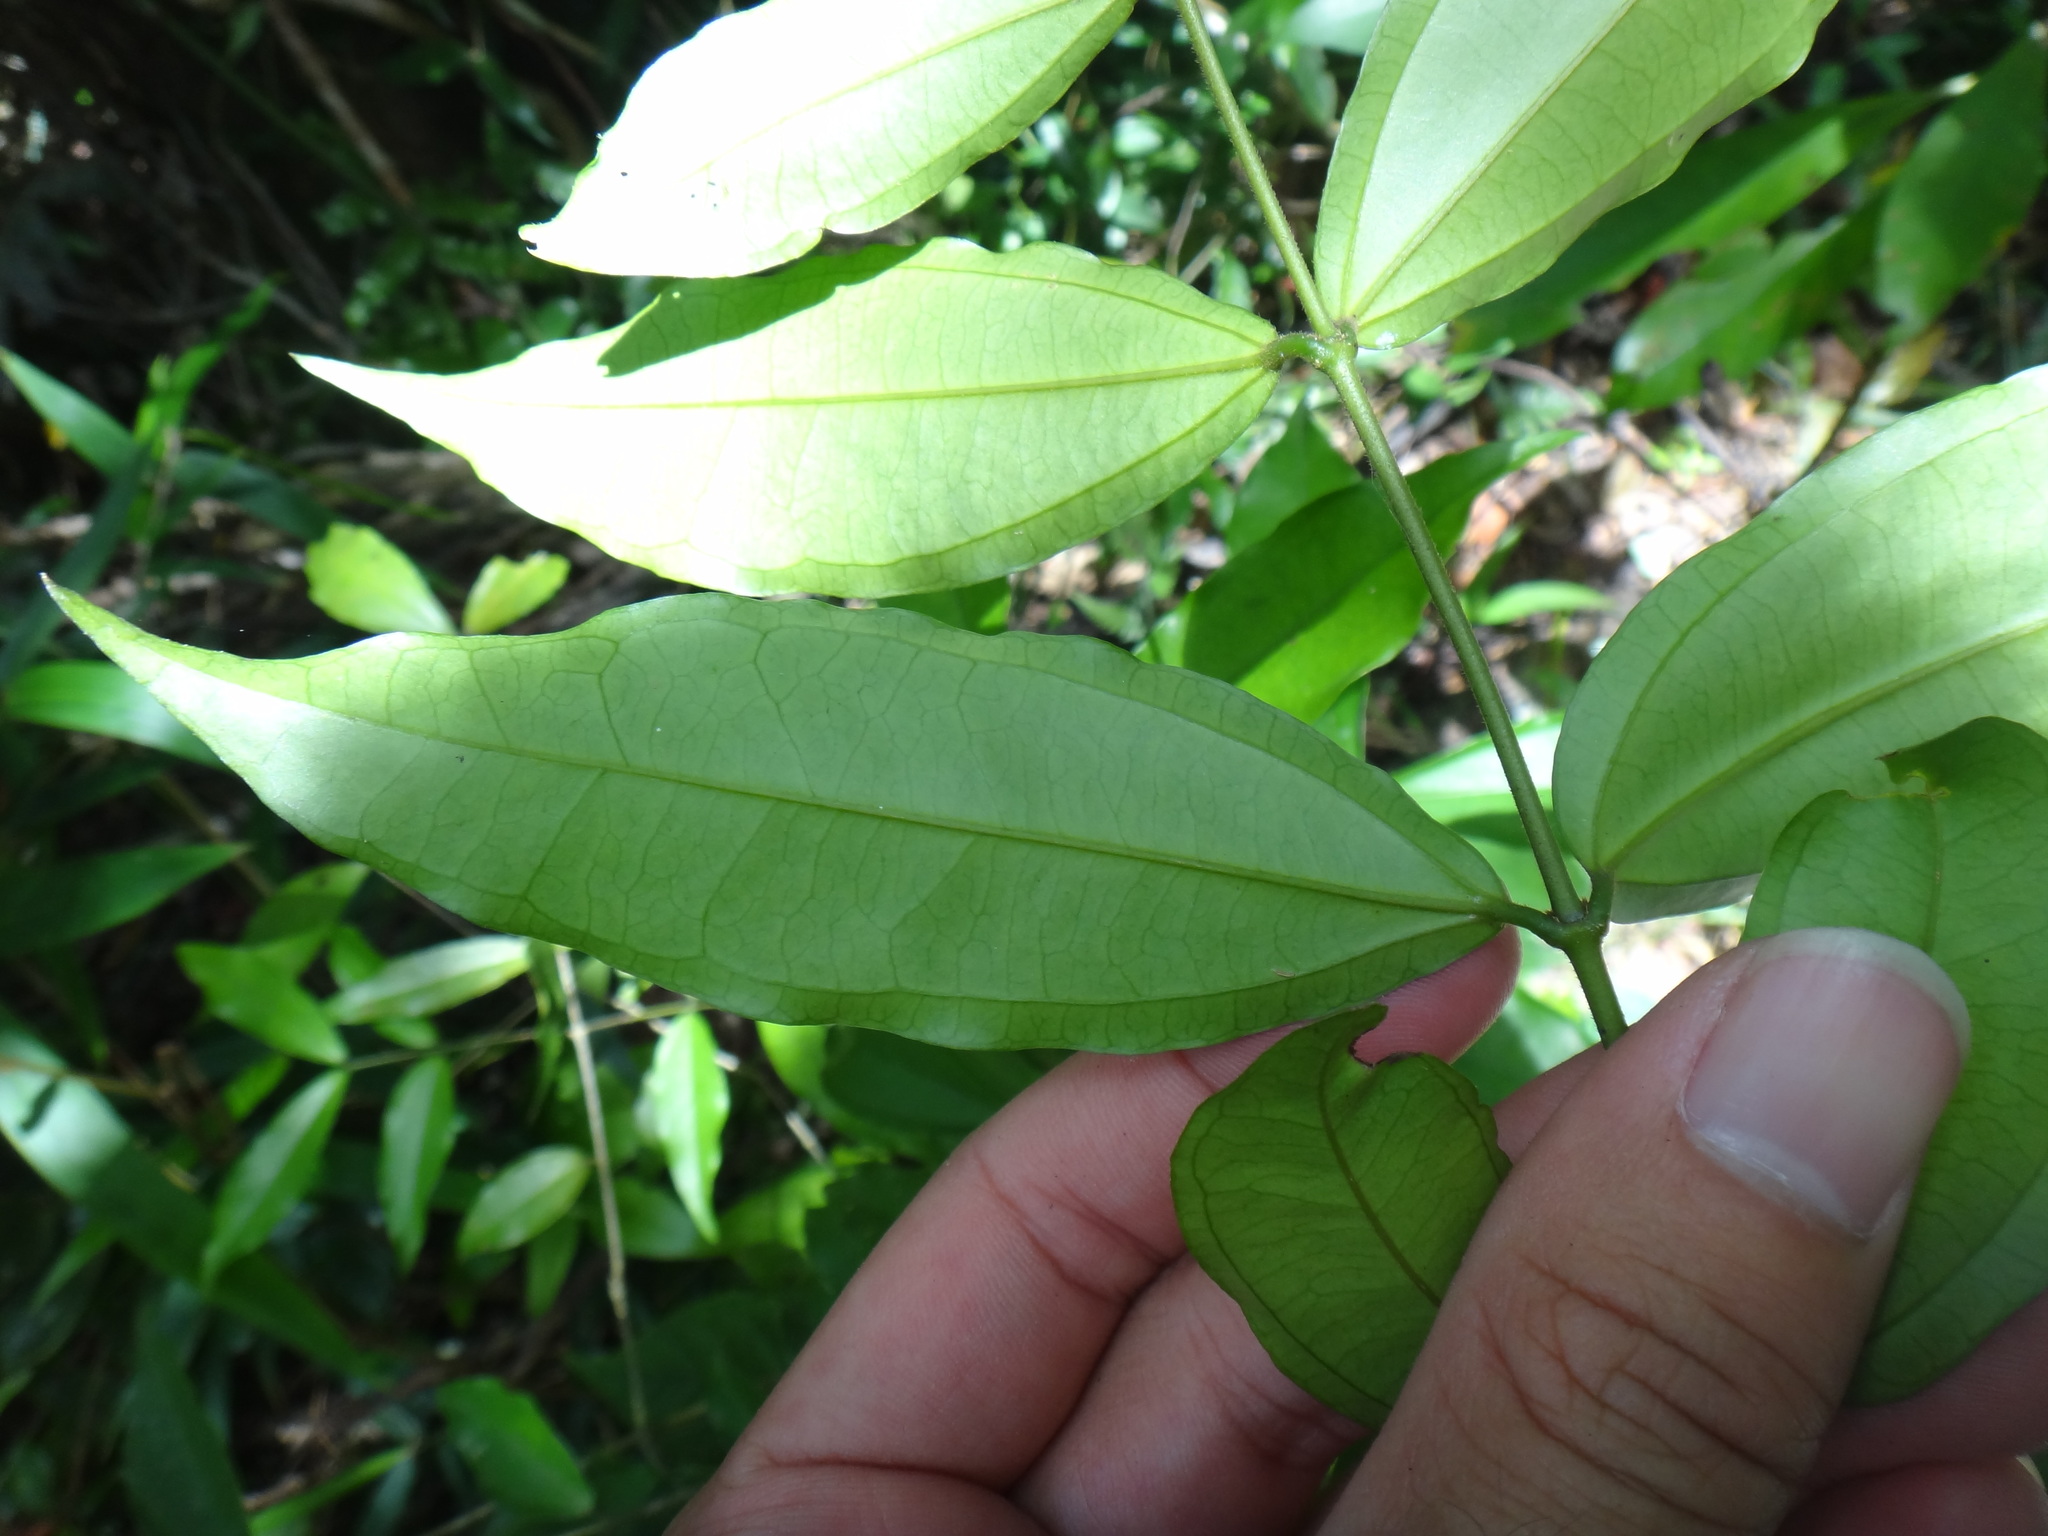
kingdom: Plantae
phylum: Tracheophyta
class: Magnoliopsida
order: Gentianales
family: Loganiaceae
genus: Strychnos
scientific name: Strychnos cathayensis
